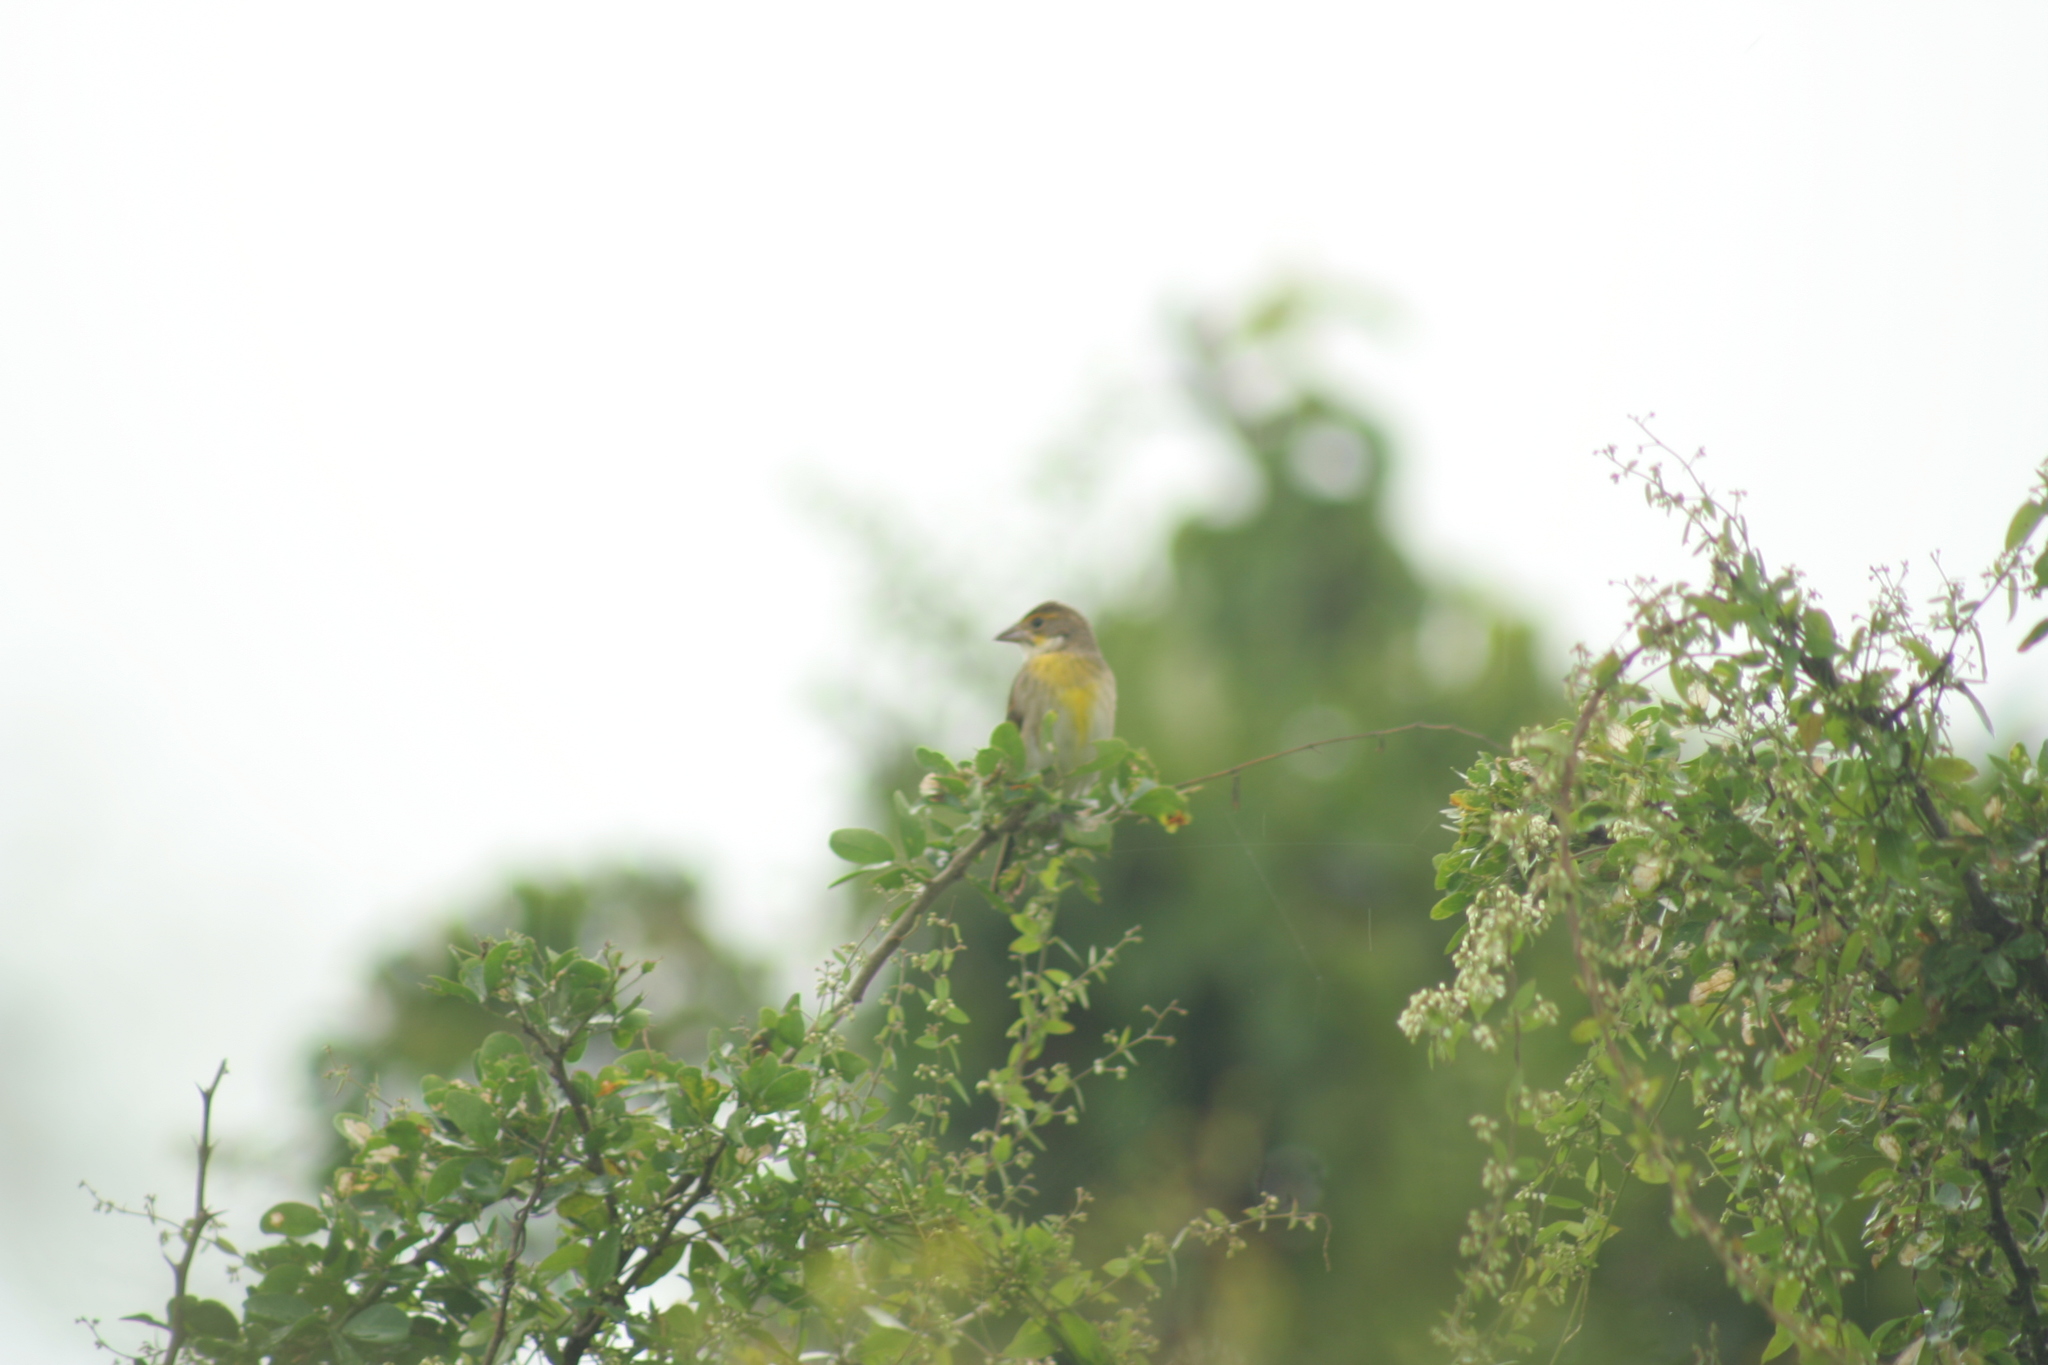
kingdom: Animalia
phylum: Chordata
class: Aves
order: Passeriformes
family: Cardinalidae
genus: Spiza
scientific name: Spiza americana
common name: Dickcissel
